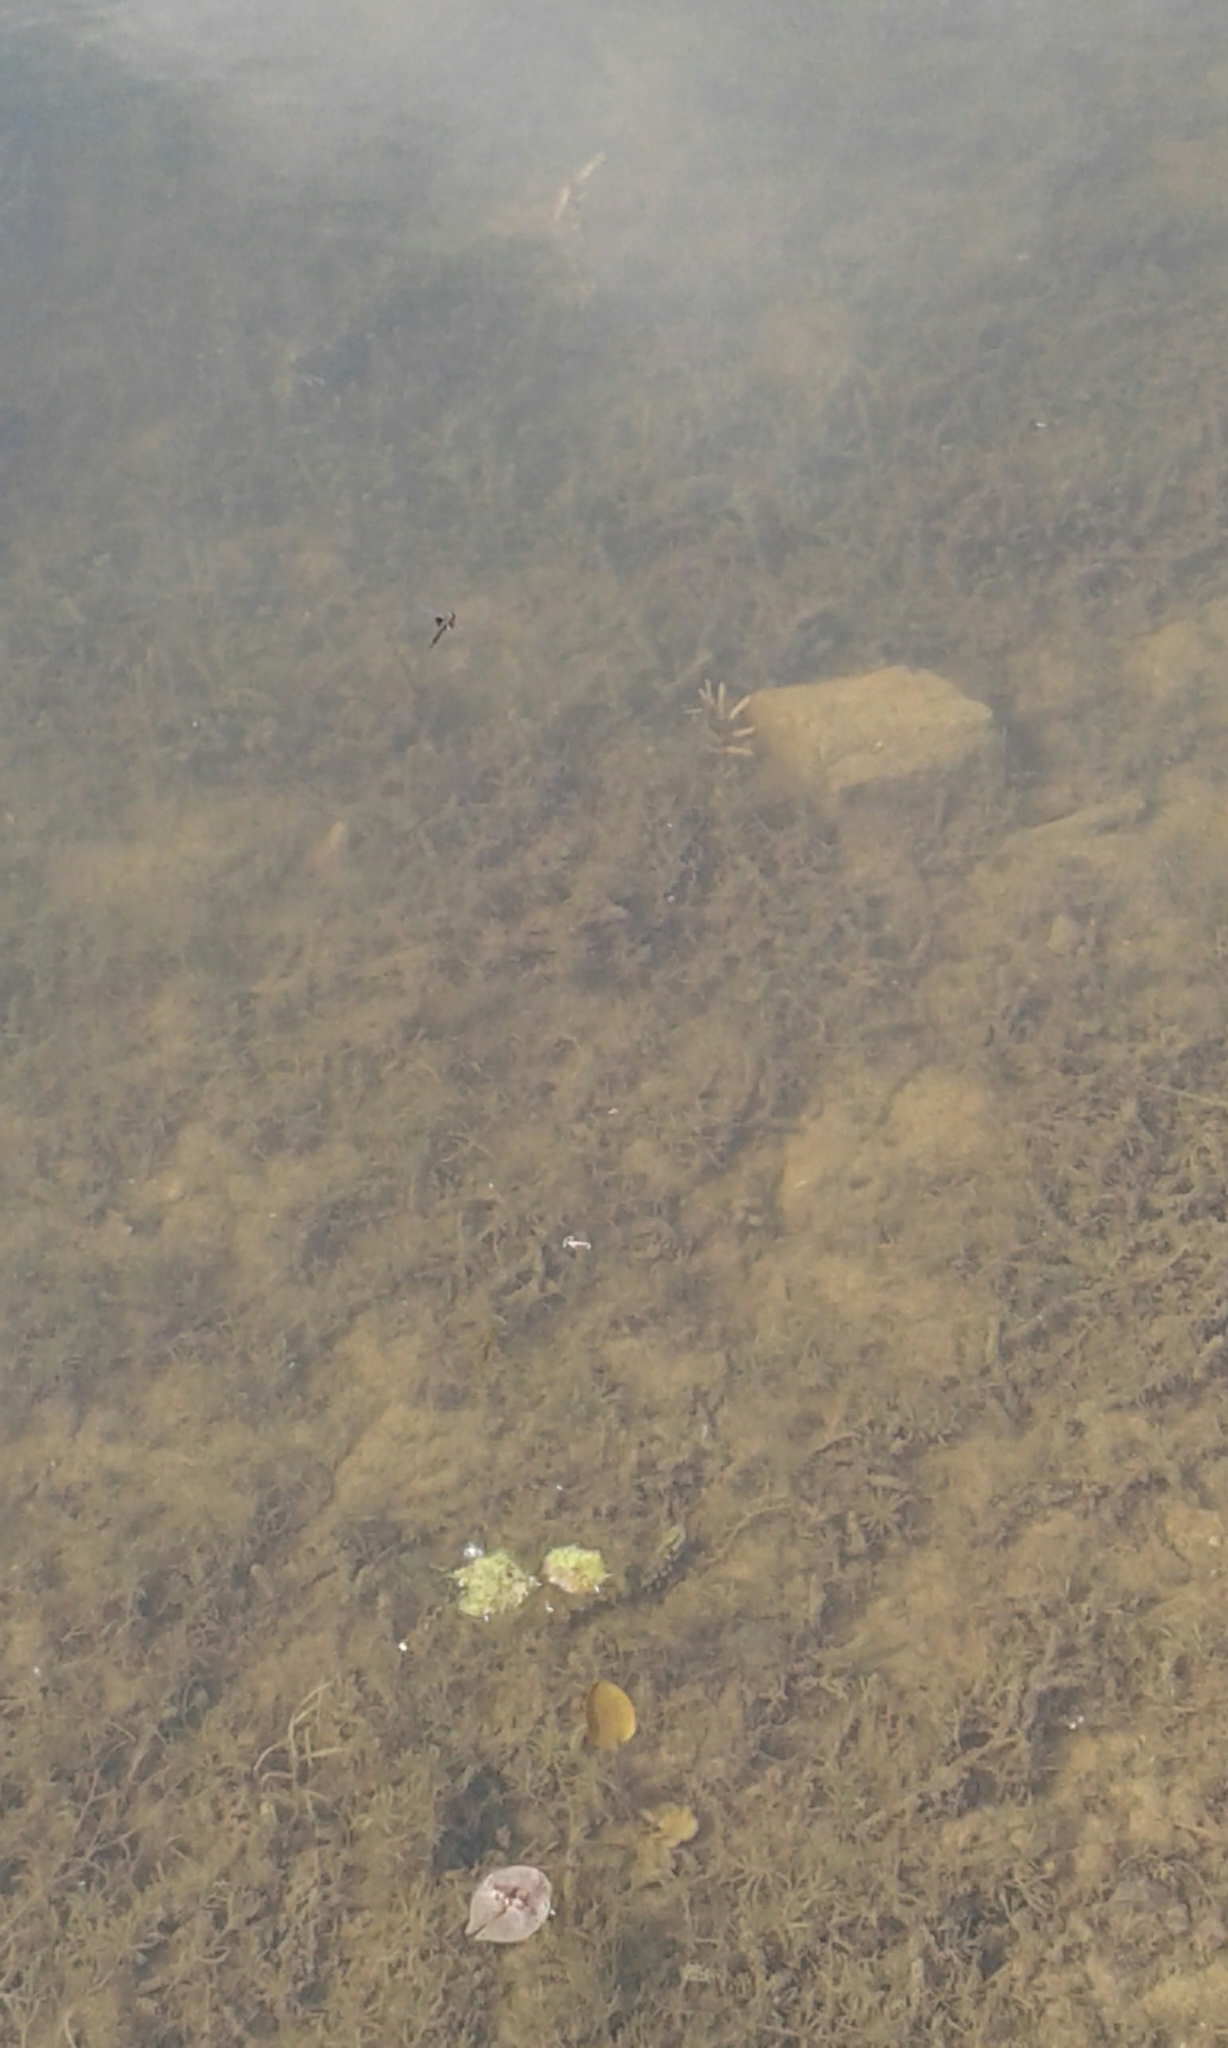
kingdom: Animalia
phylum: Arthropoda
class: Insecta
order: Odonata
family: Corduliidae
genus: Epitheca
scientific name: Epitheca cynosura
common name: Common baskettail
